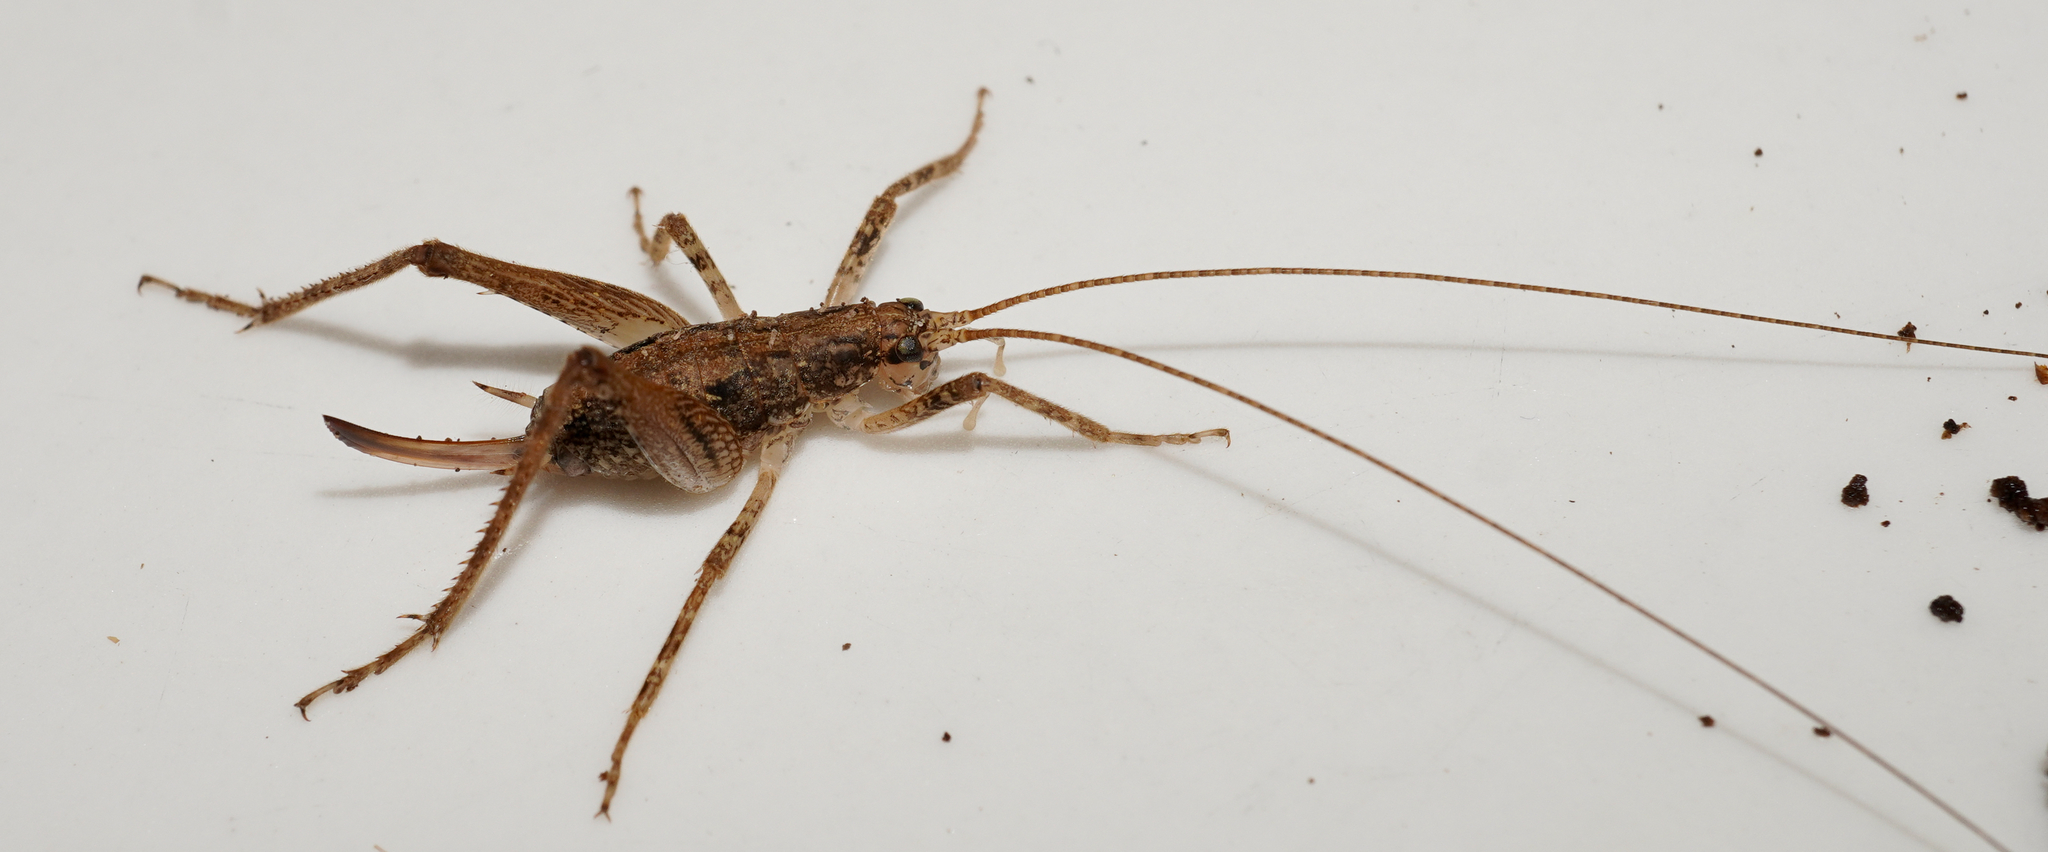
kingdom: Animalia
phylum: Arthropoda
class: Insecta
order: Orthoptera
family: Rhaphidophoridae
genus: Isoplectron
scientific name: Isoplectron armatum
